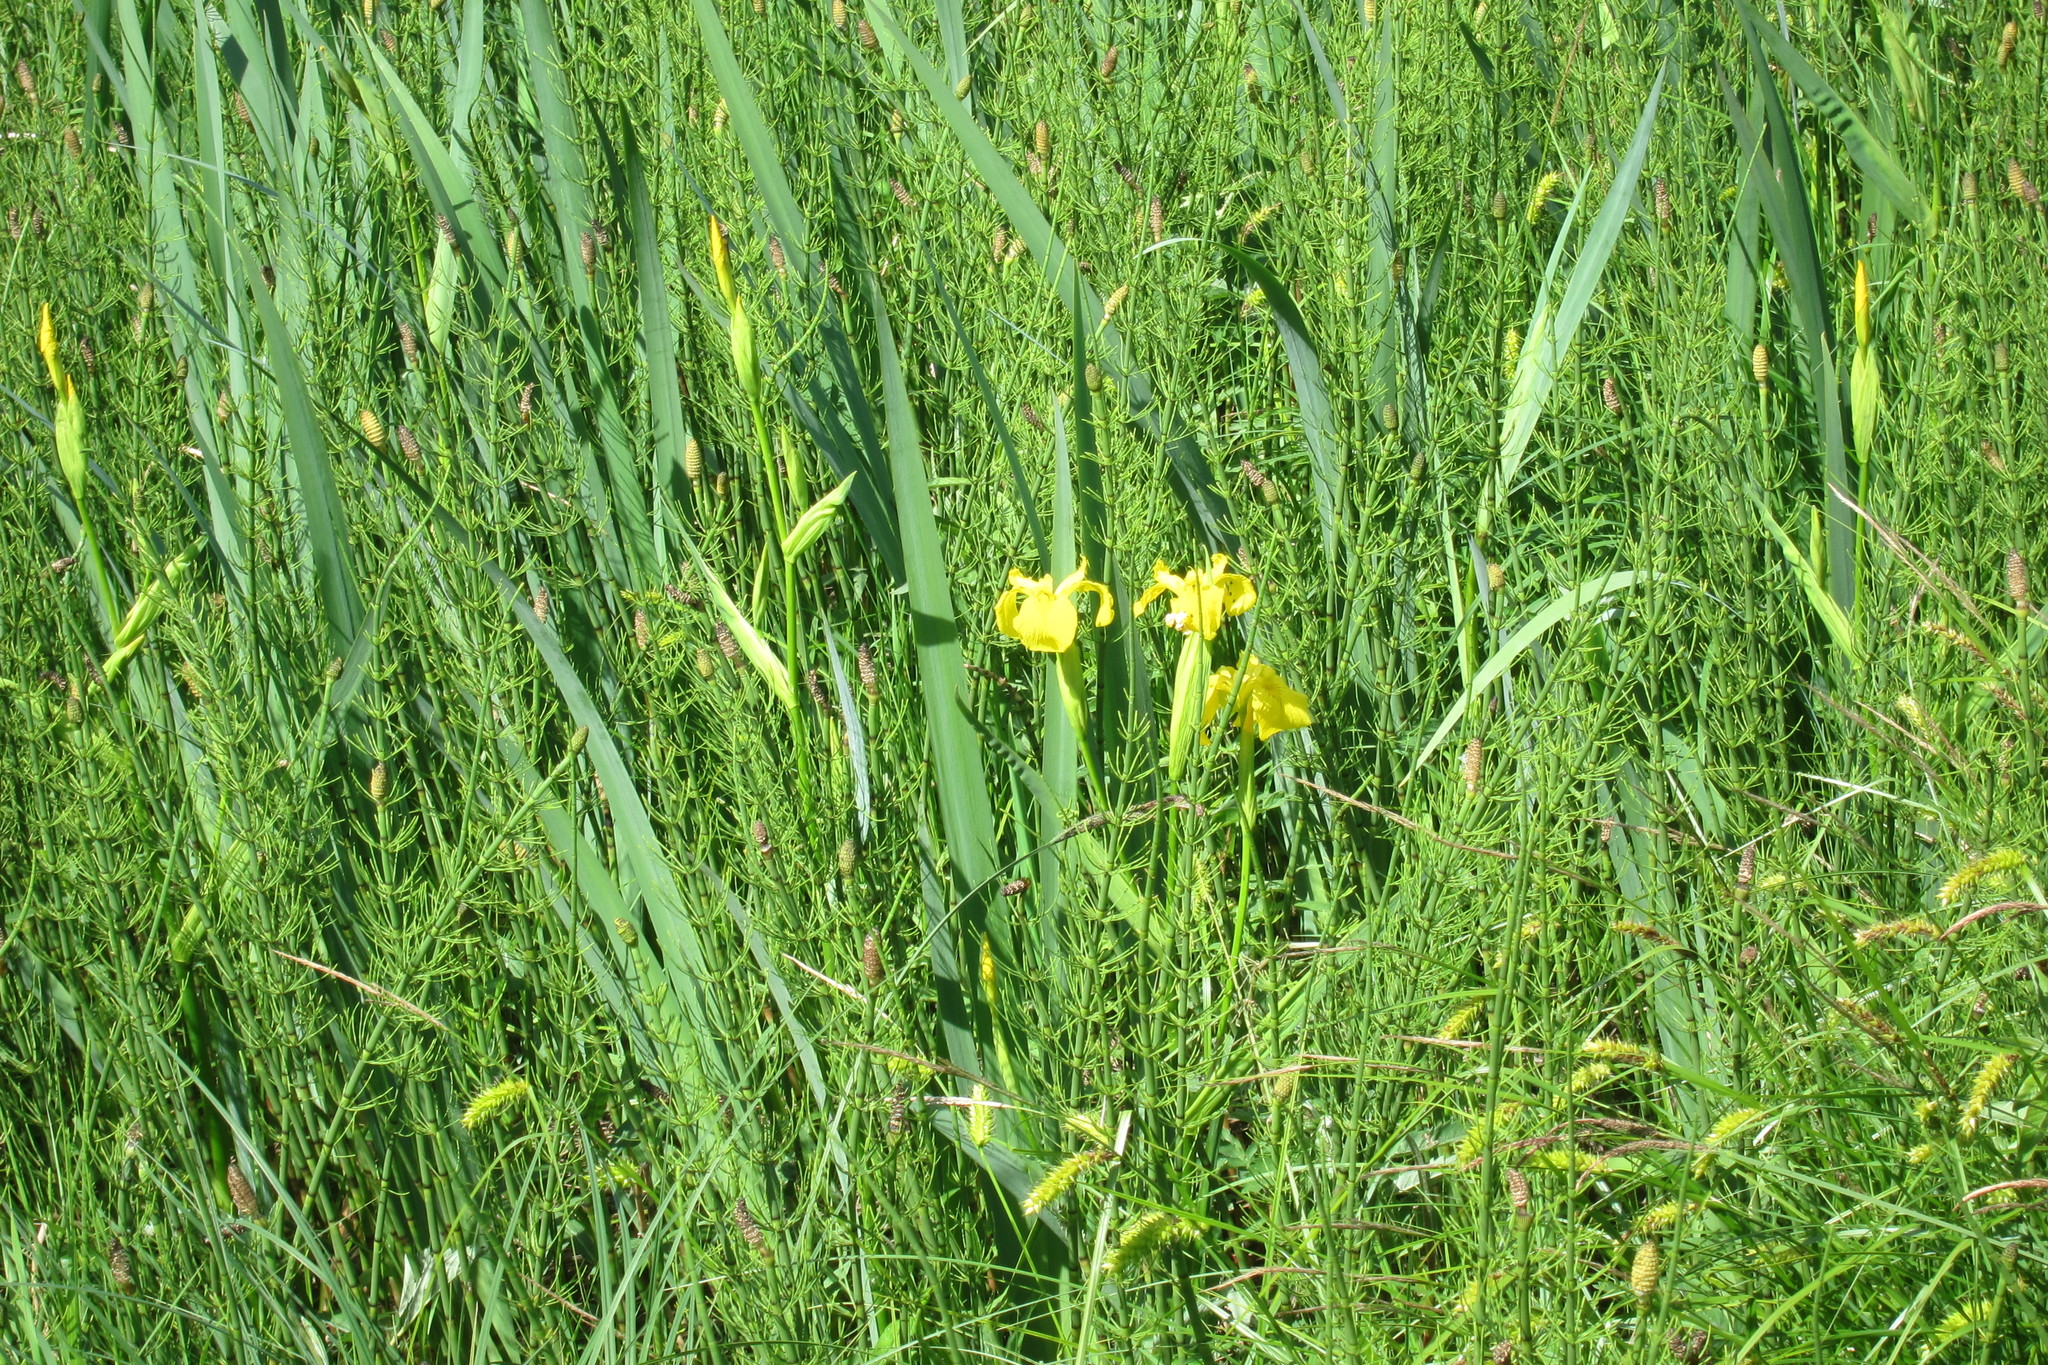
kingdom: Plantae
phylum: Tracheophyta
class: Liliopsida
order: Asparagales
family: Iridaceae
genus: Iris
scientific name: Iris pseudacorus
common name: Yellow flag
